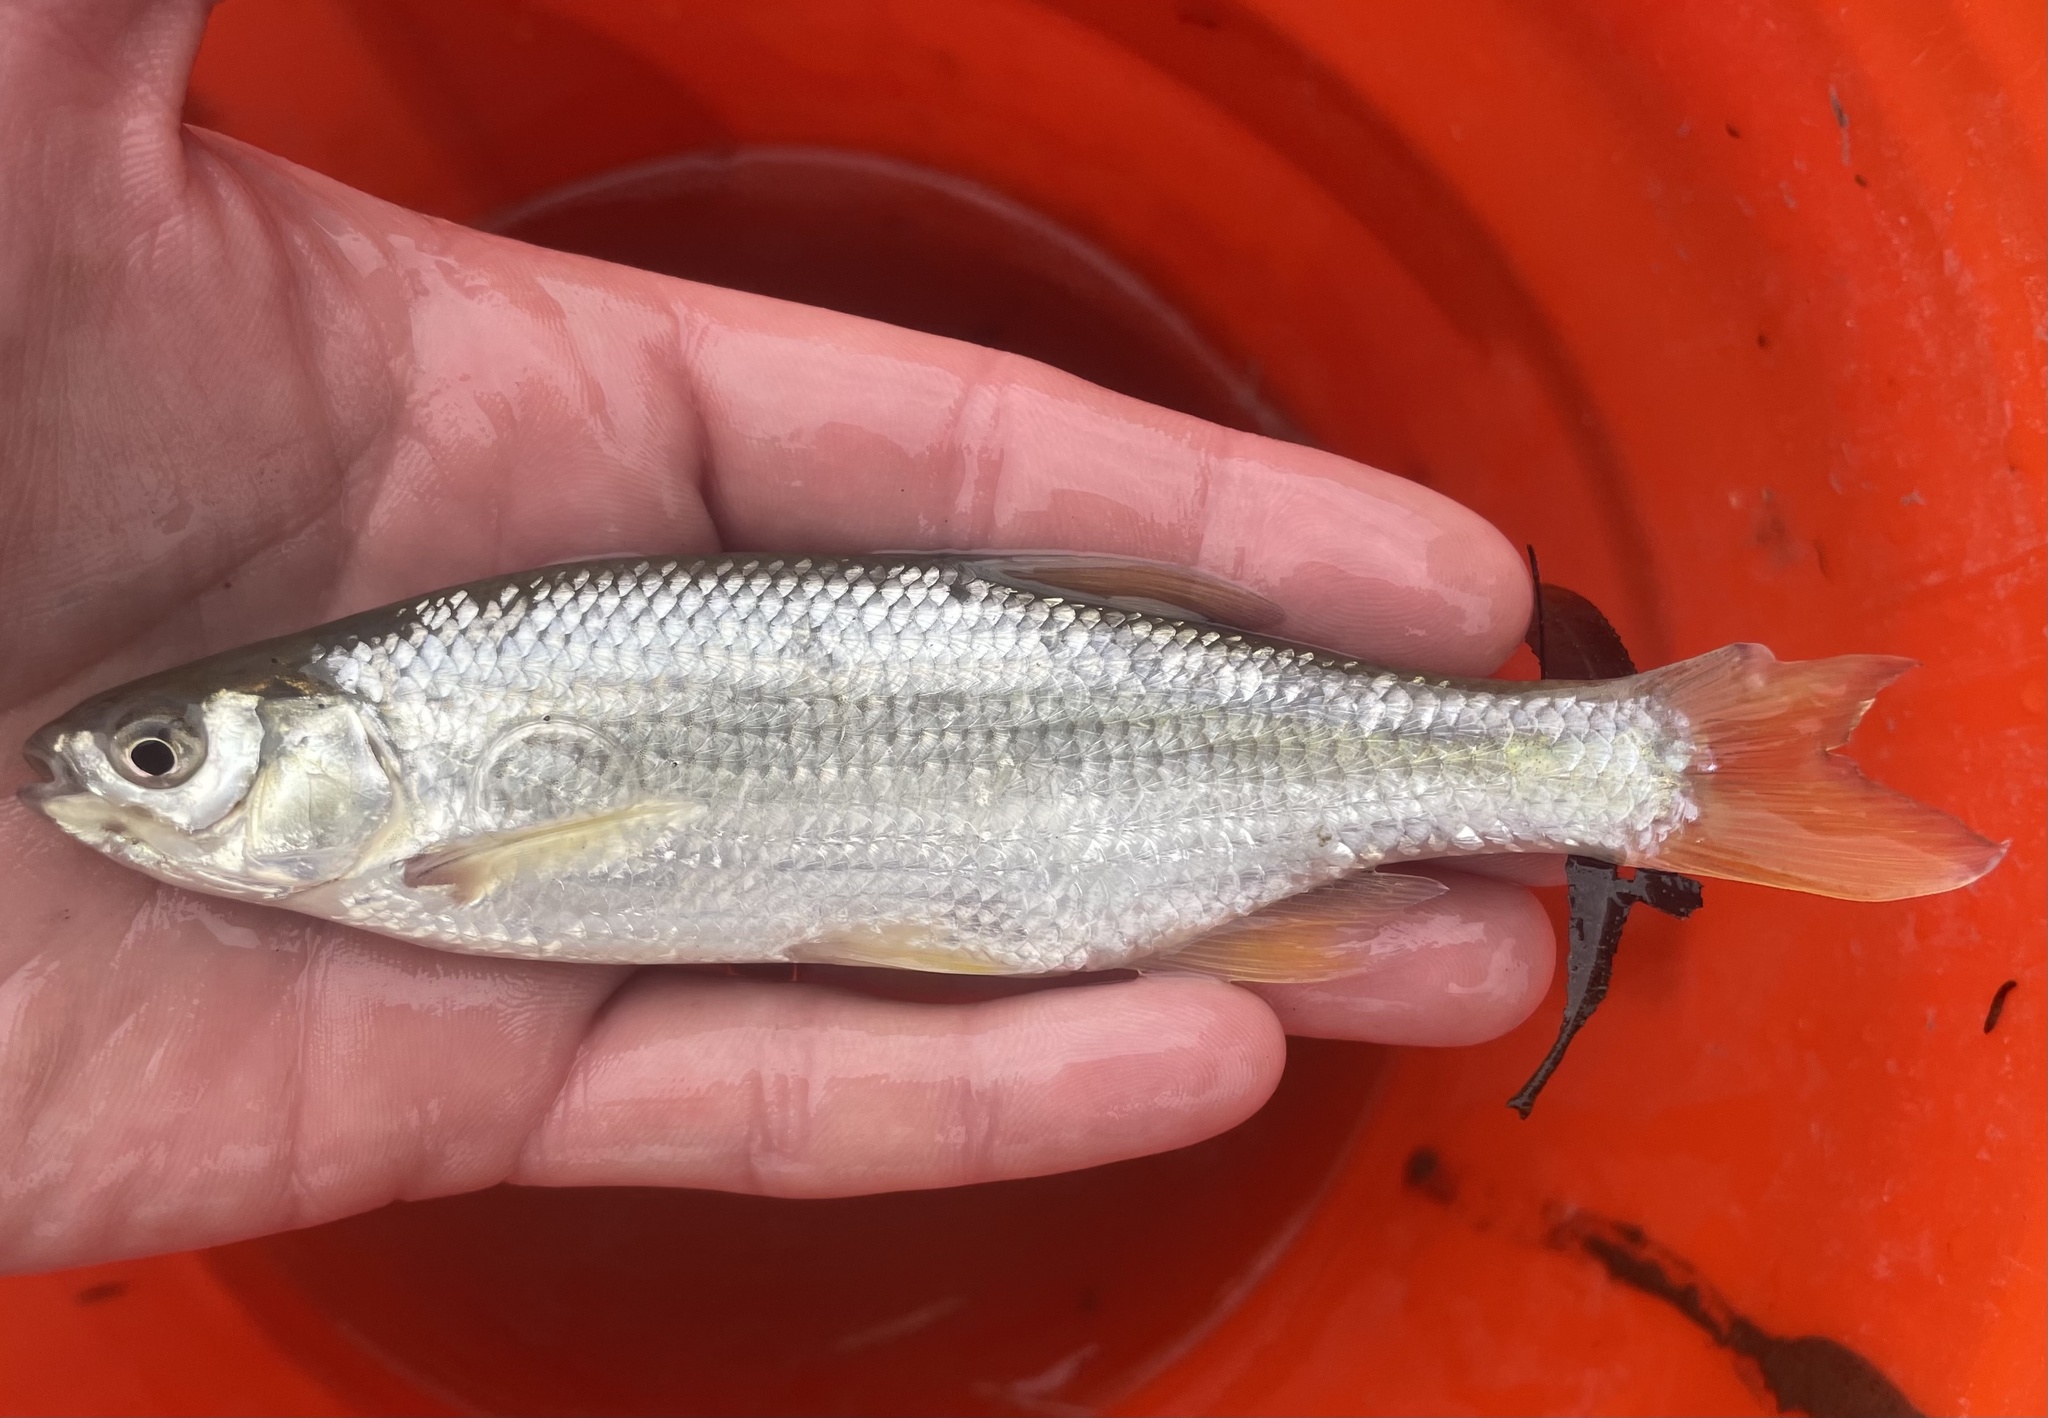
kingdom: Animalia
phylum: Chordata
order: Cypriniformes
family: Cyprinidae
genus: Notemigonus
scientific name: Notemigonus crysoleucas
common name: Golden shiner
